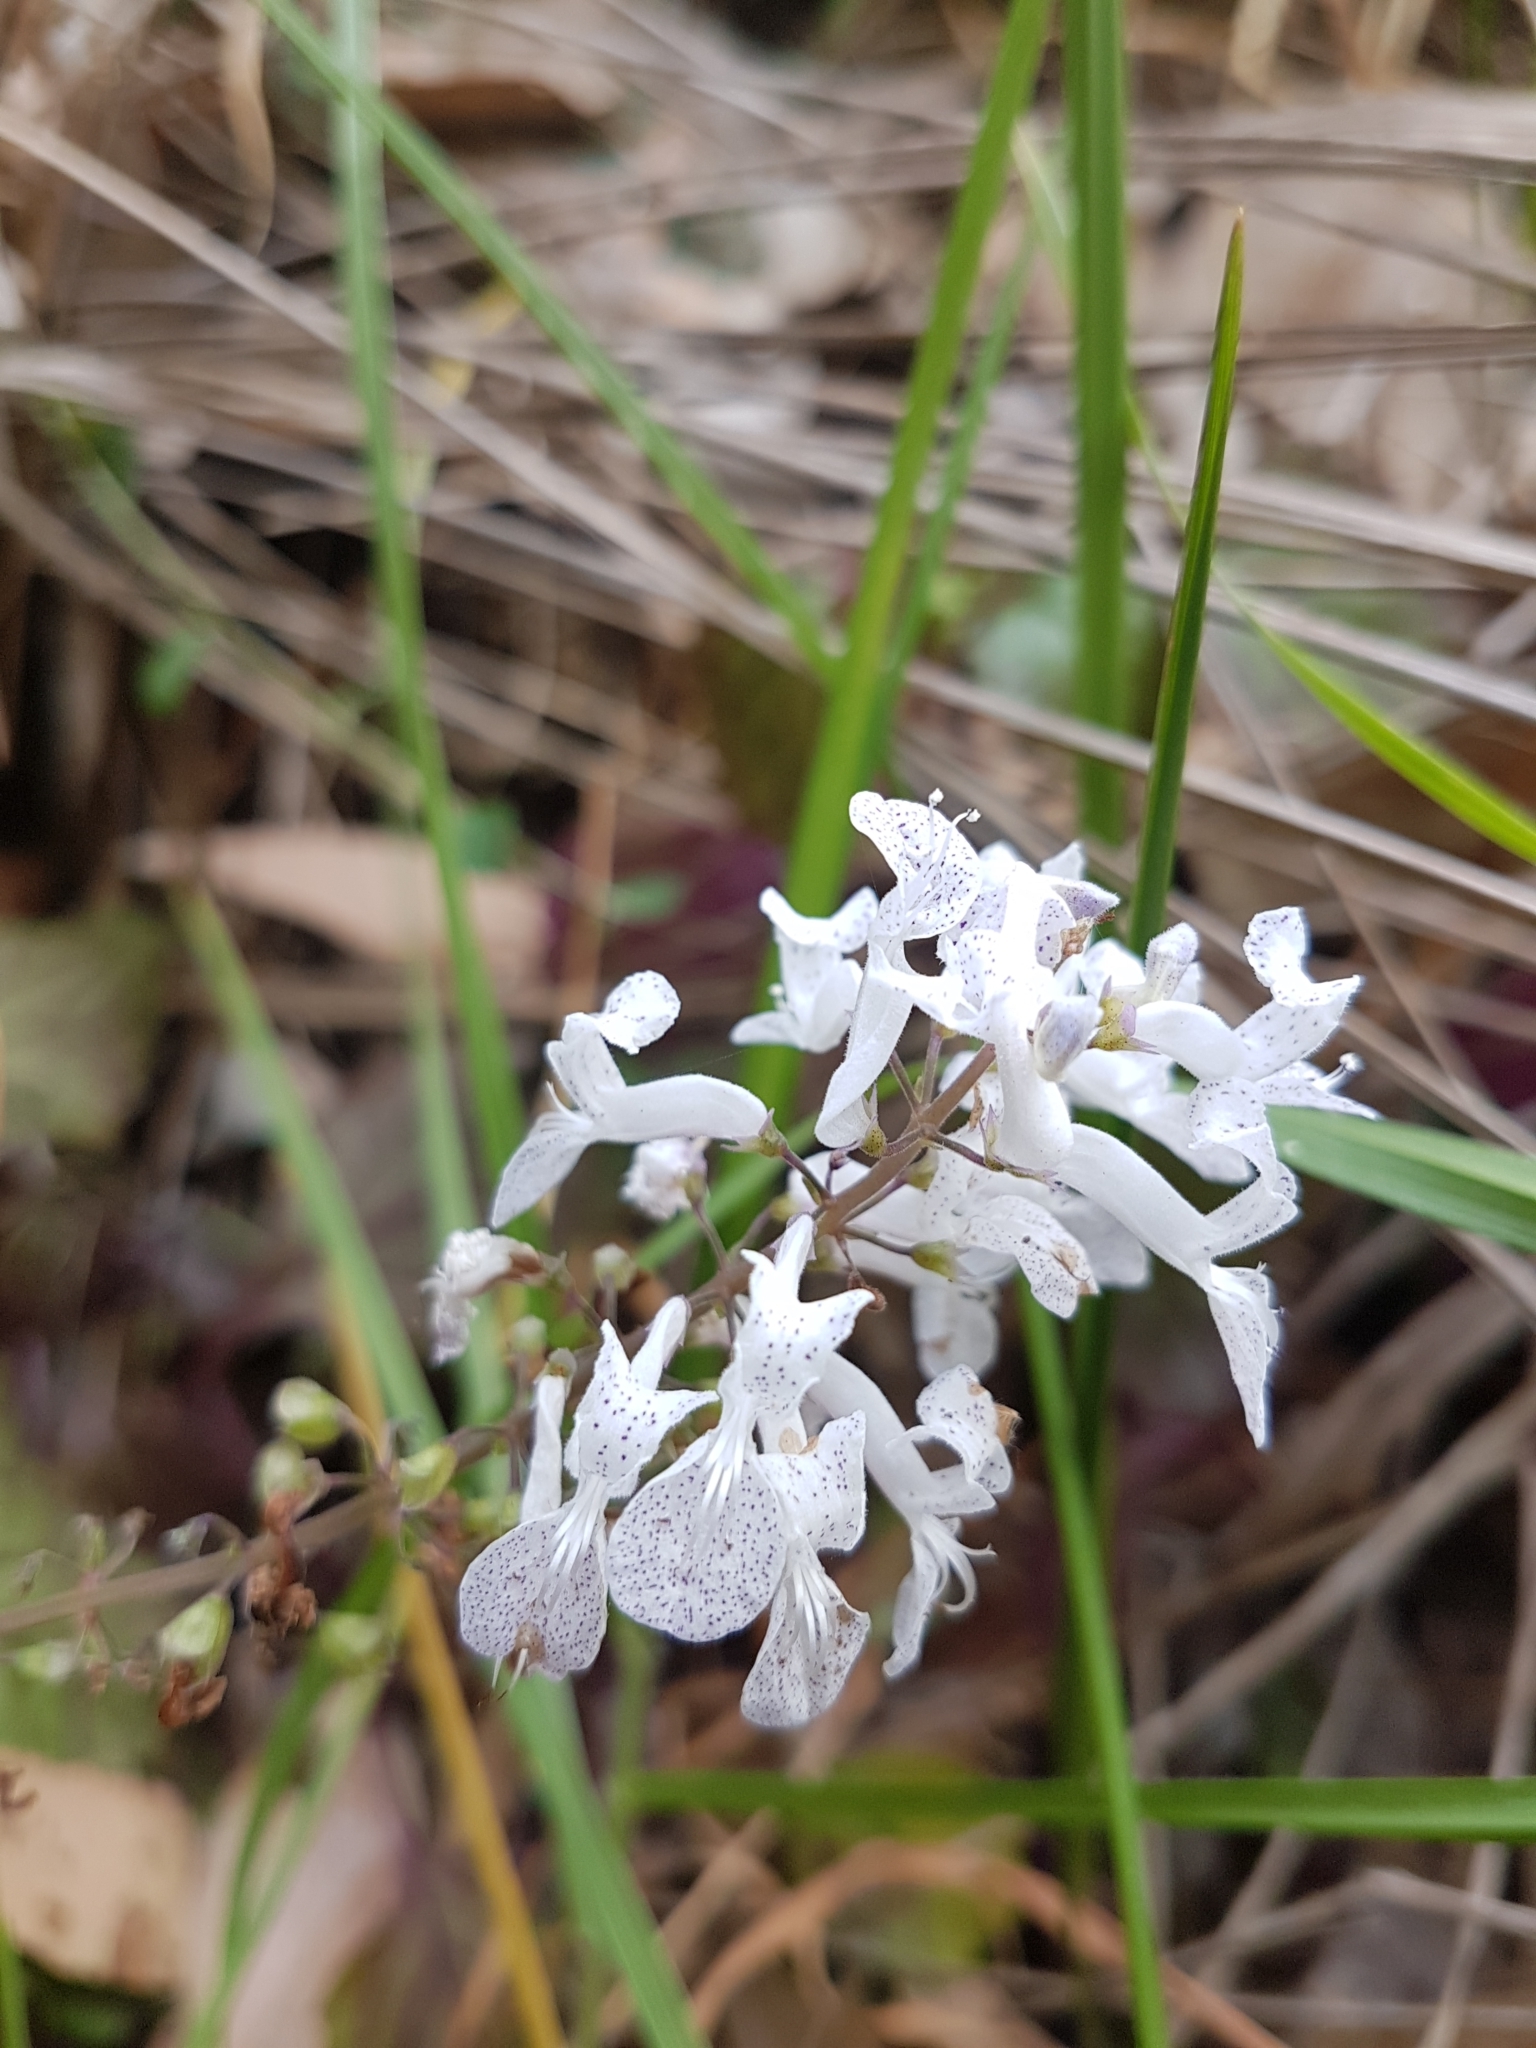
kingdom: Plantae
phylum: Tracheophyta
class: Magnoliopsida
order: Lamiales
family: Lamiaceae
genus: Plectranthus
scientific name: Plectranthus ciliatus
